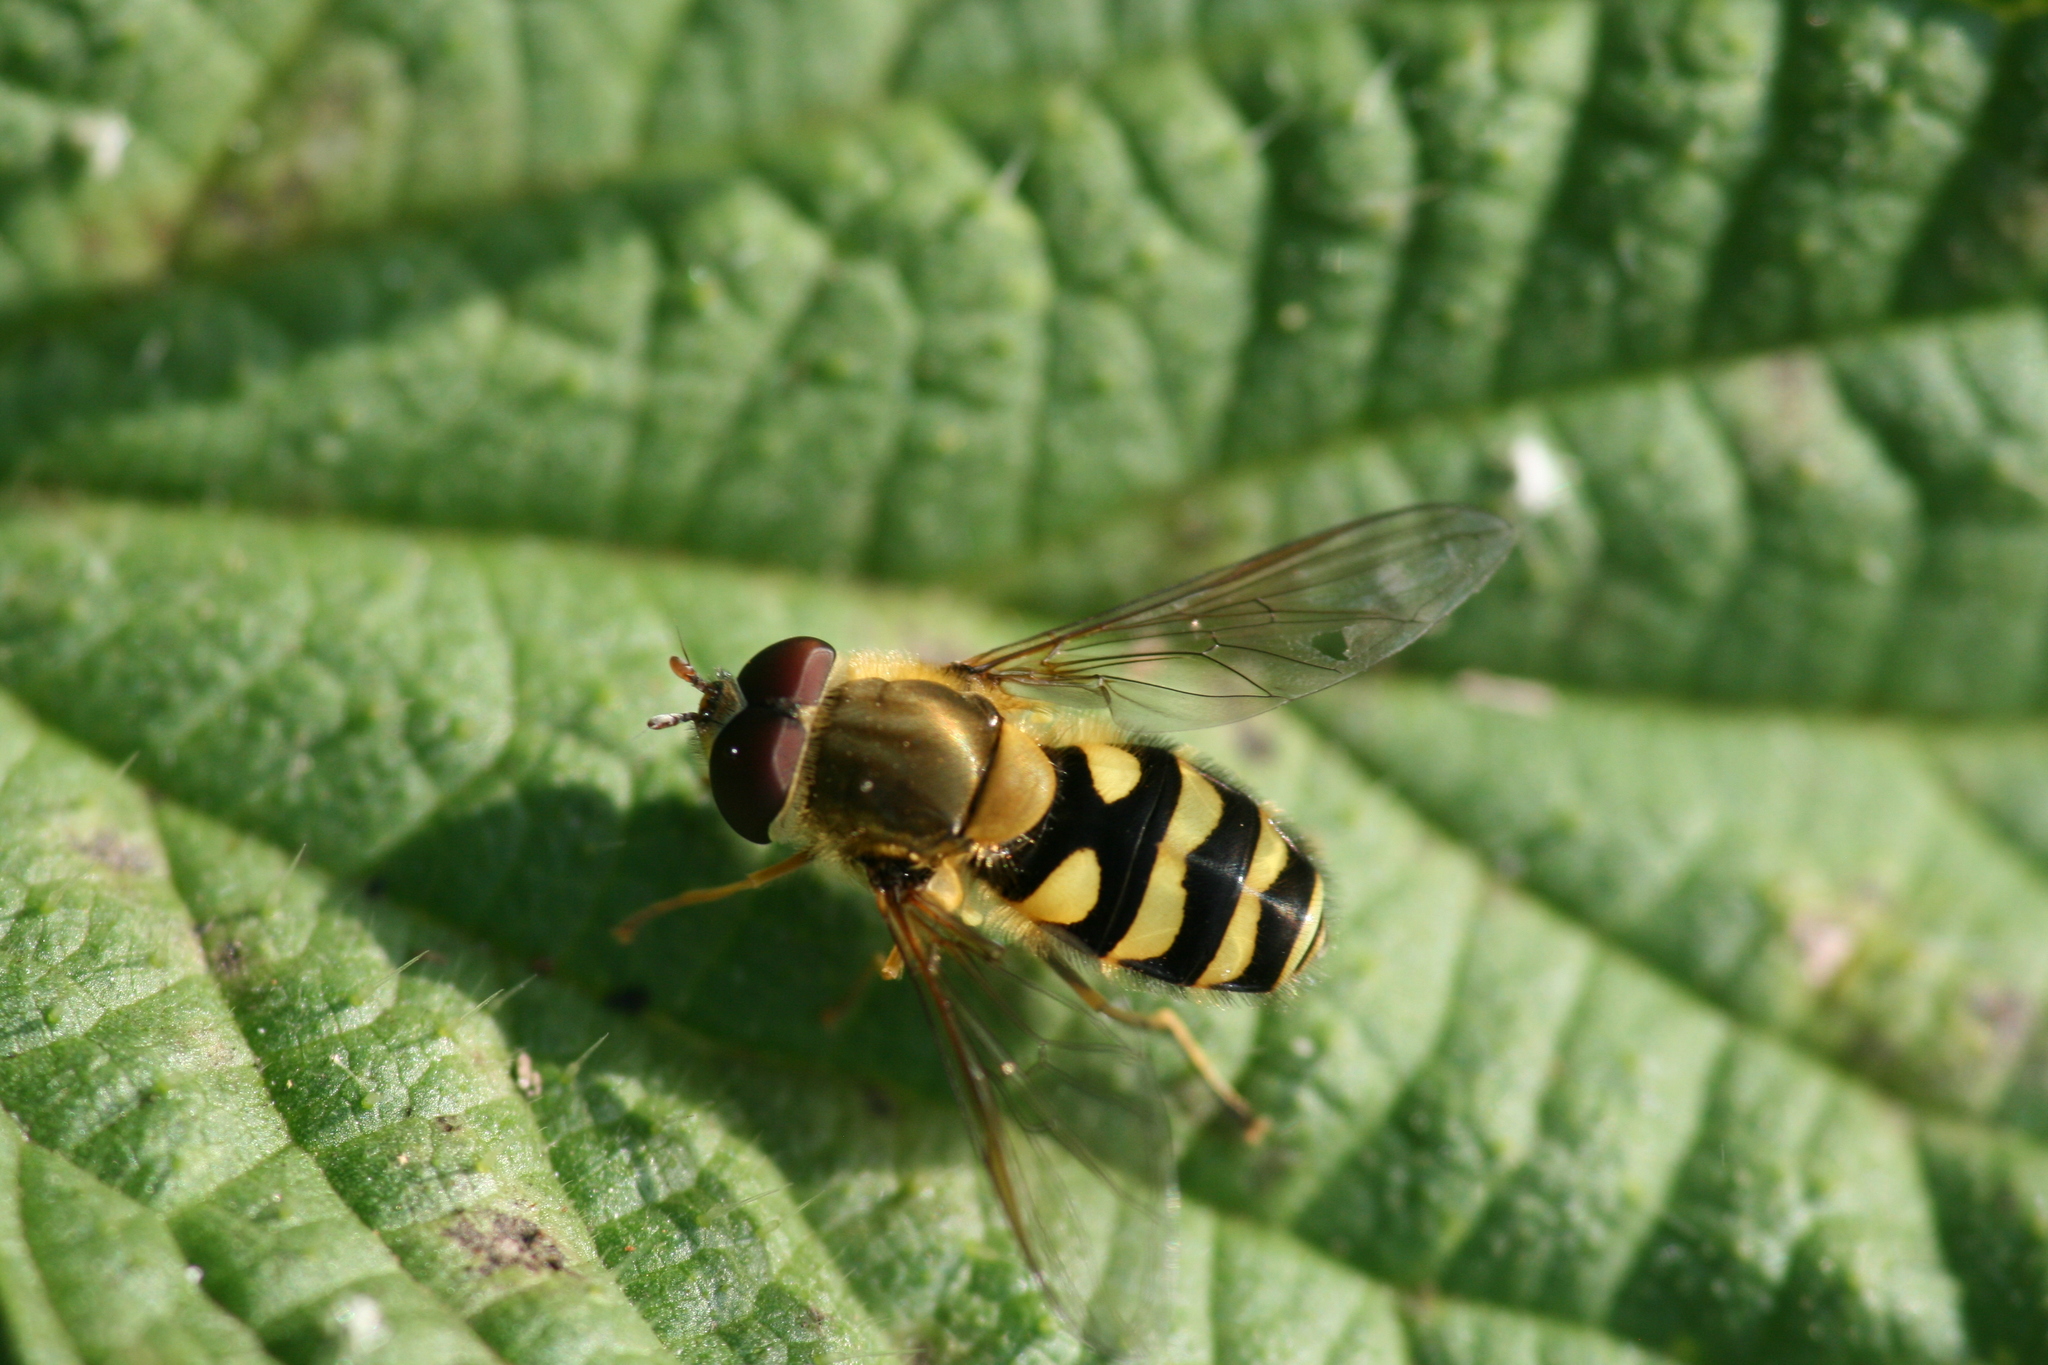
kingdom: Animalia
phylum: Arthropoda
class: Insecta
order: Diptera
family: Syrphidae
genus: Syrphus
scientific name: Syrphus
